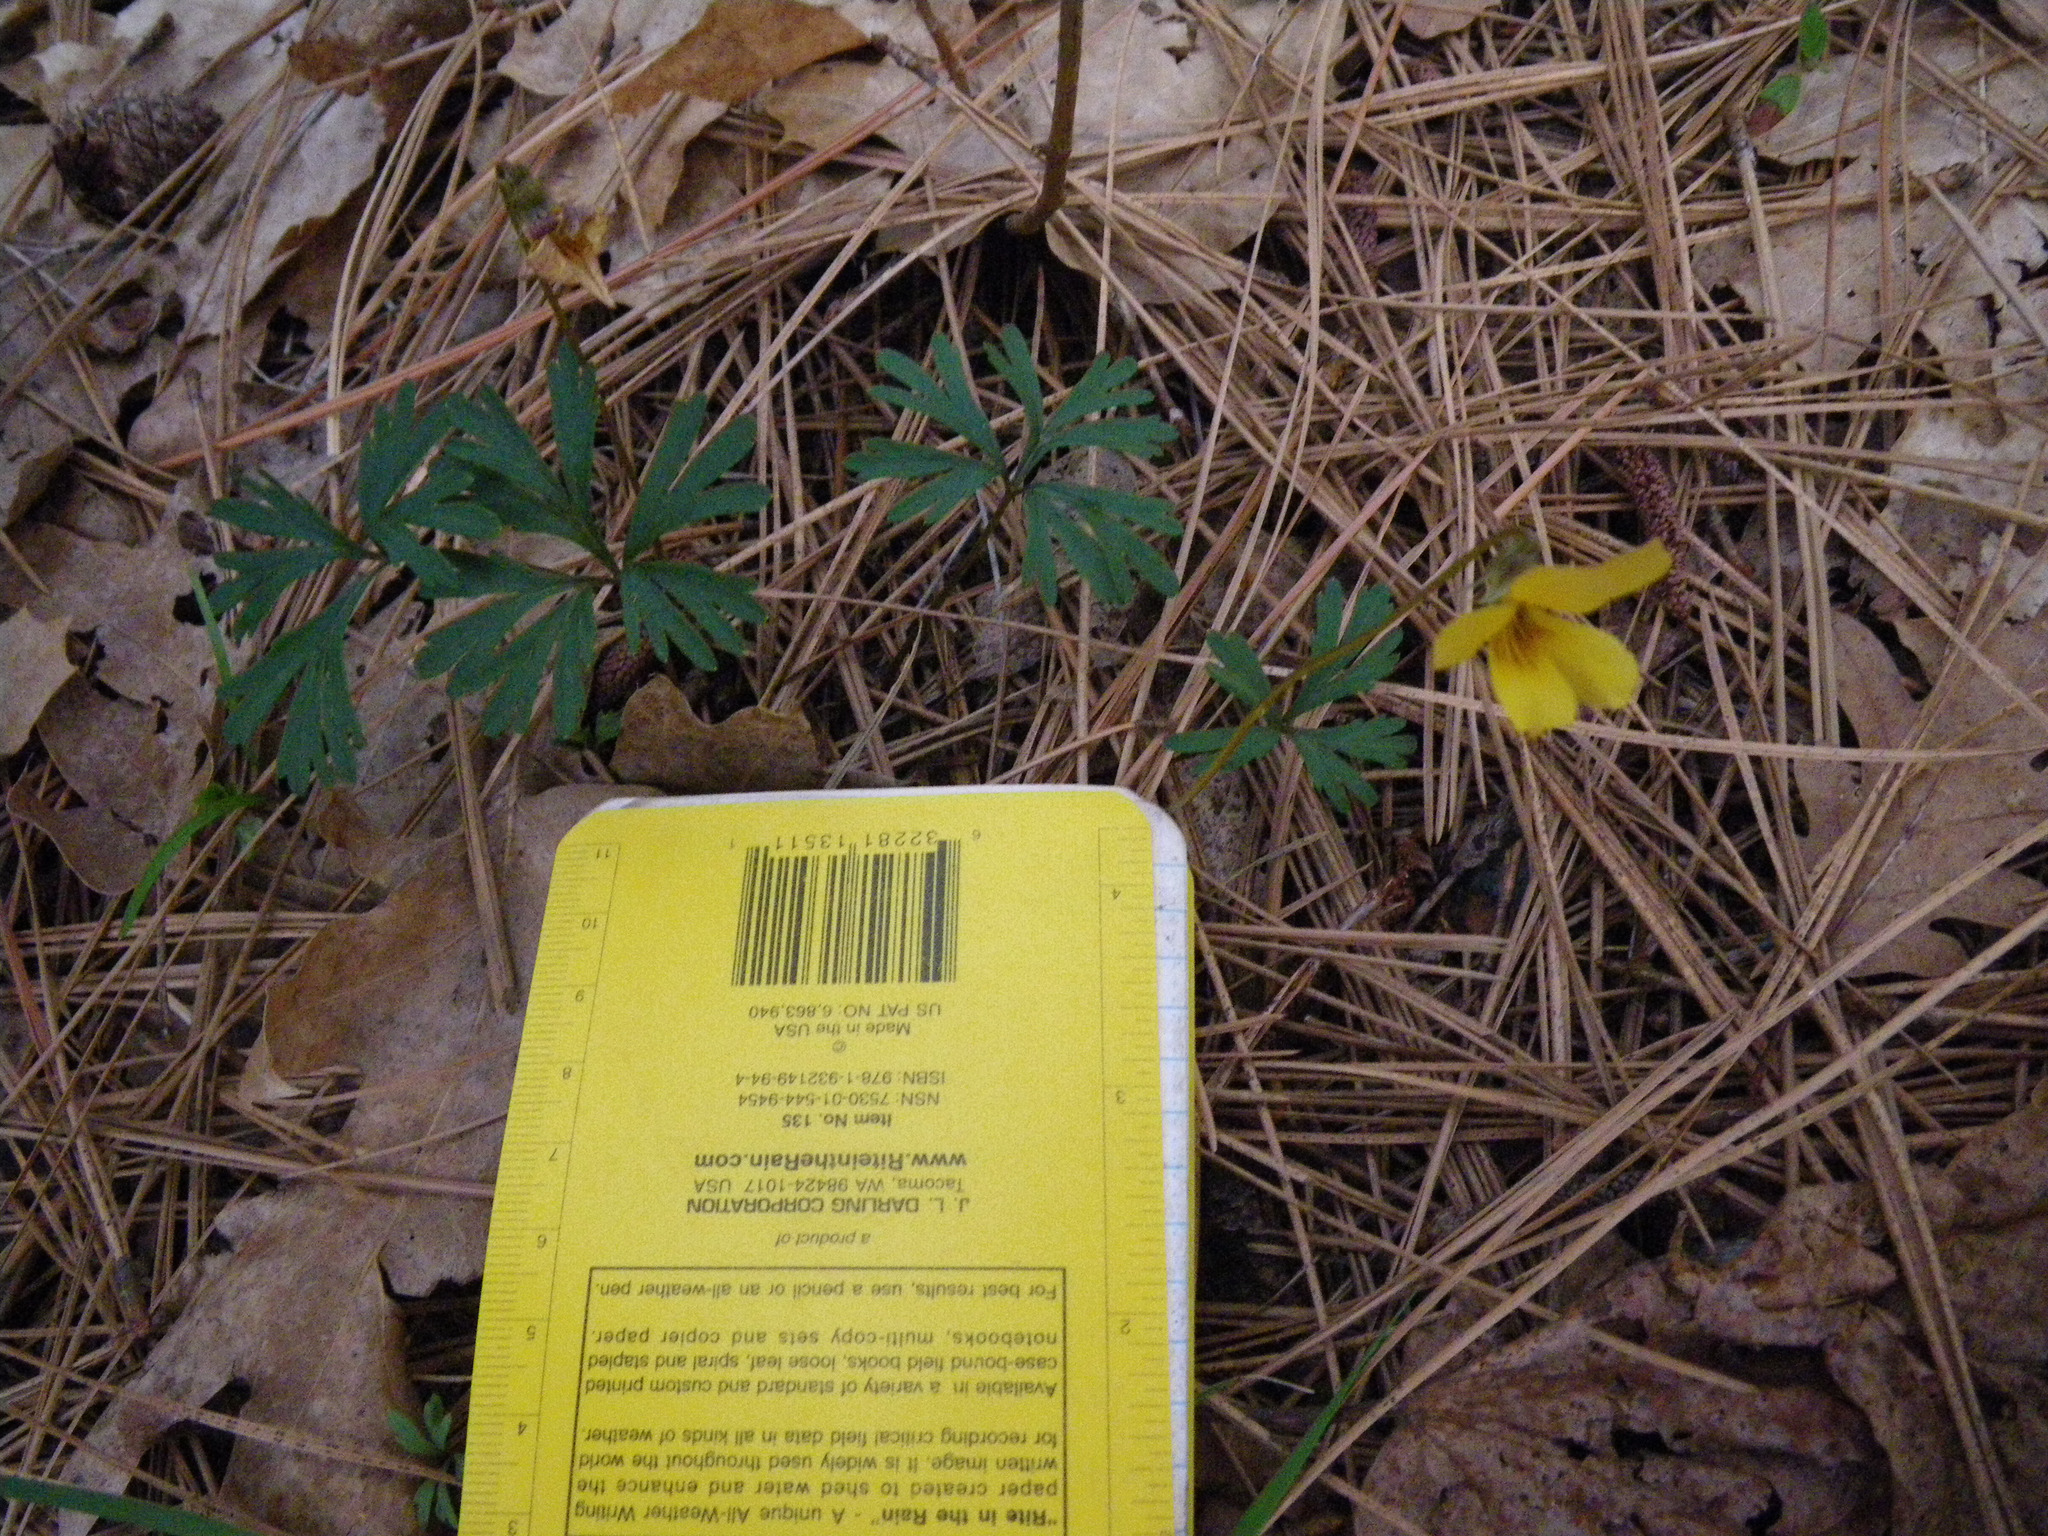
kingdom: Plantae
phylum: Tracheophyta
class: Magnoliopsida
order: Malpighiales
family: Violaceae
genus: Viola
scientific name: Viola sheltonii
